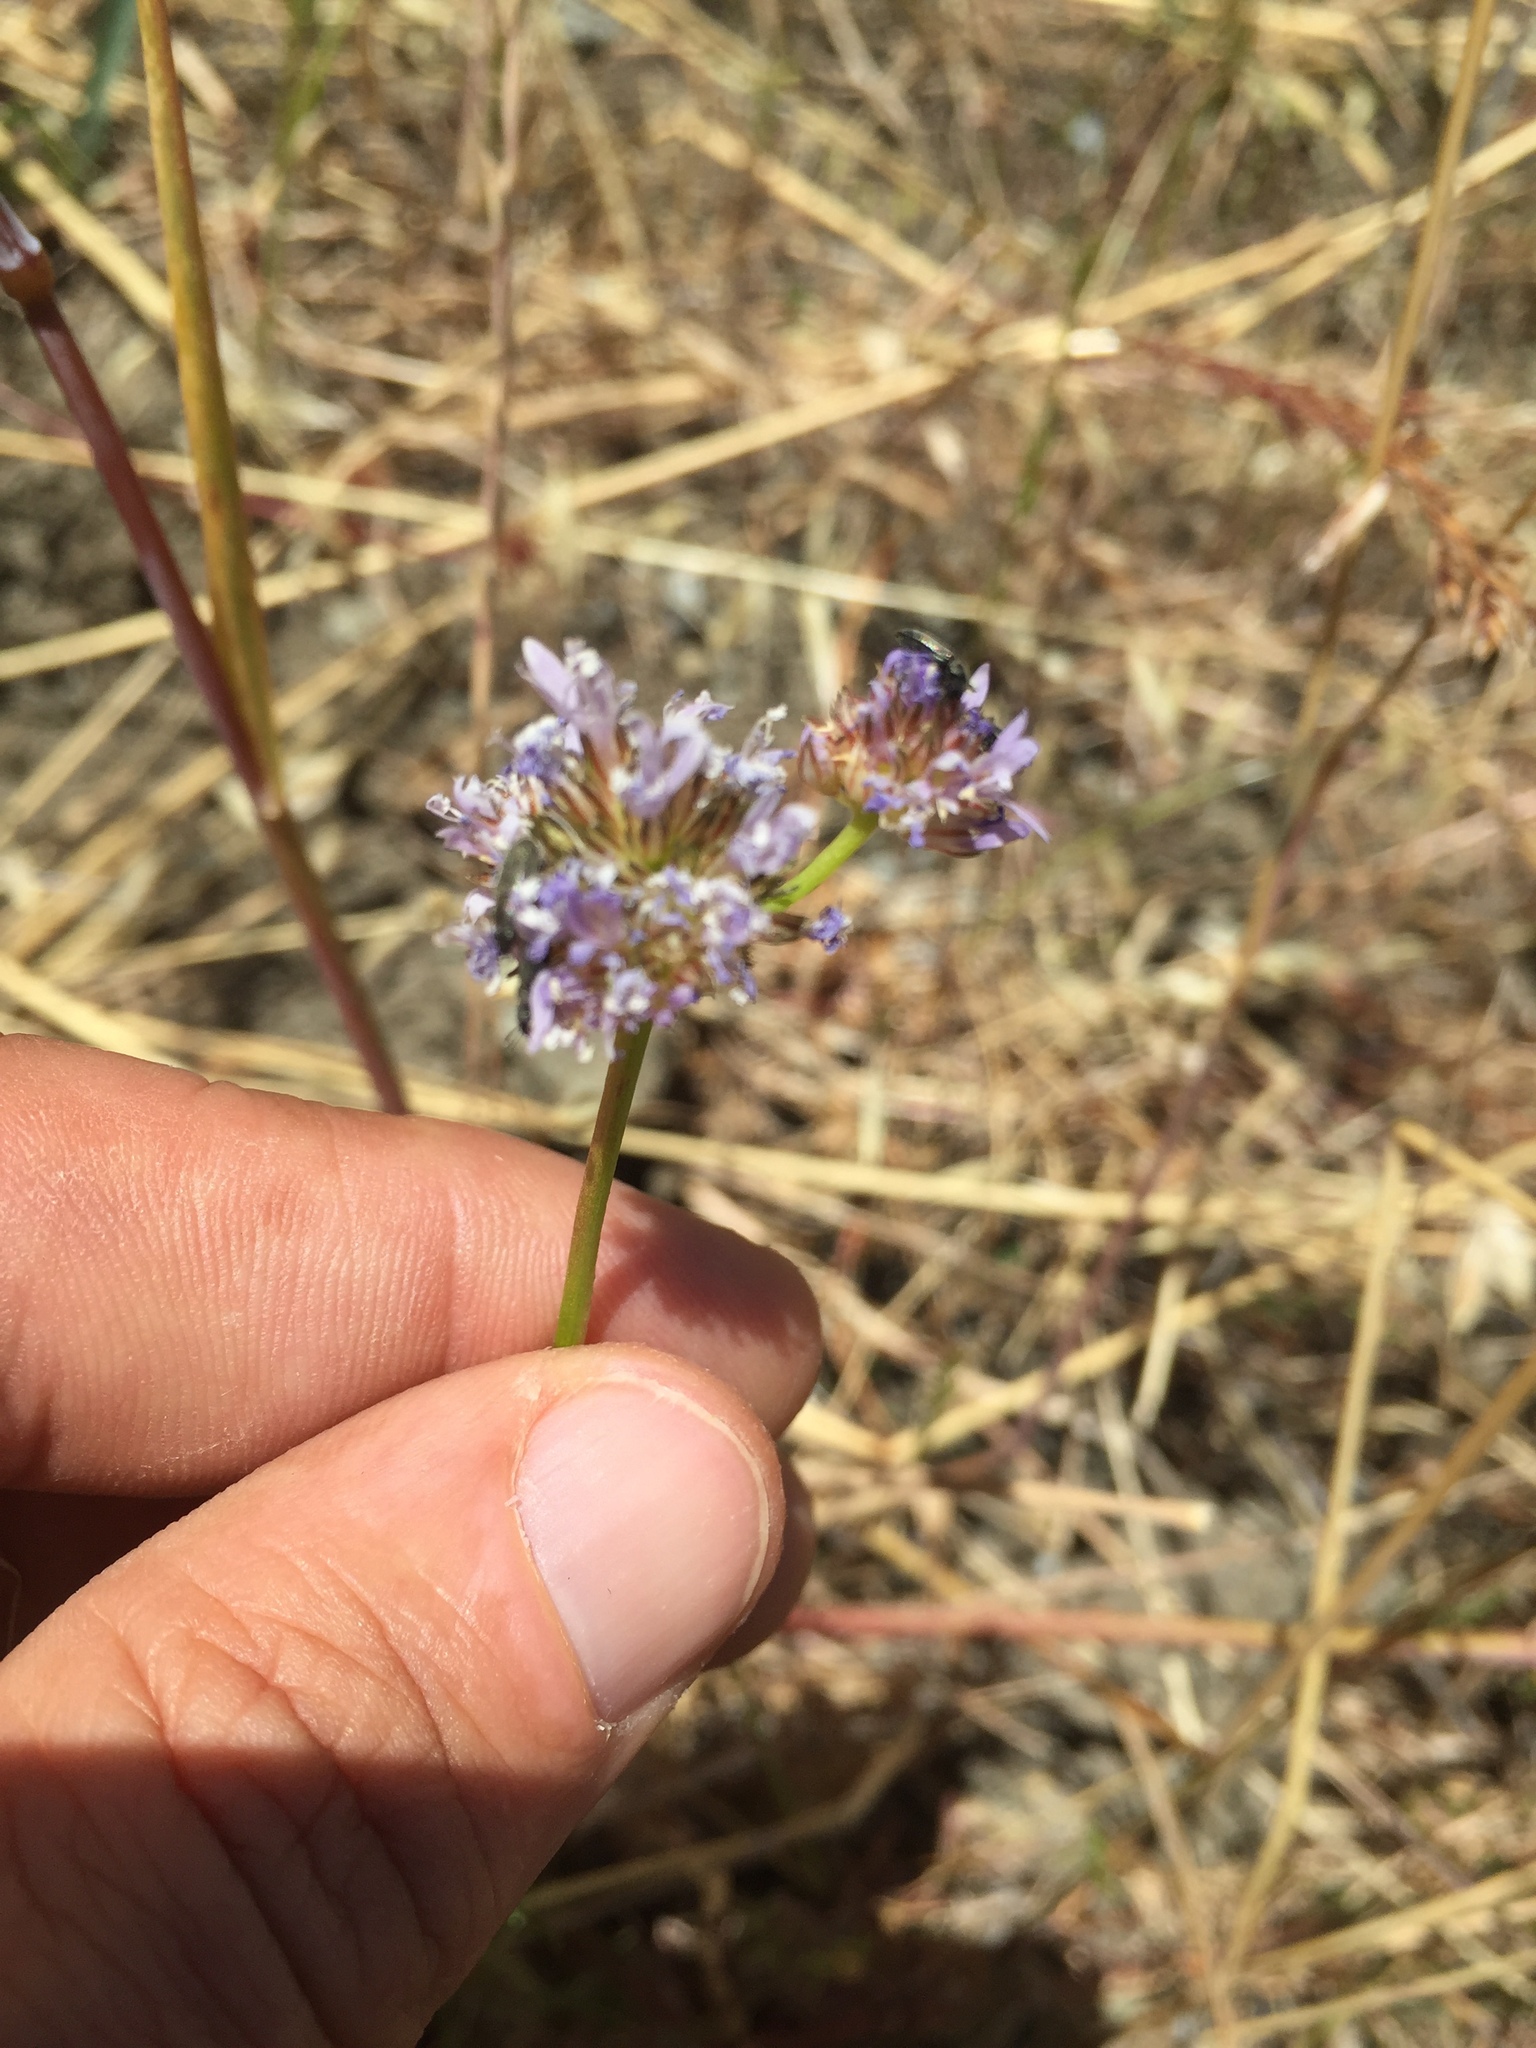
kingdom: Plantae
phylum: Tracheophyta
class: Magnoliopsida
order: Ericales
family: Polemoniaceae
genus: Gilia
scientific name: Gilia capitata
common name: Bluehead gilia
